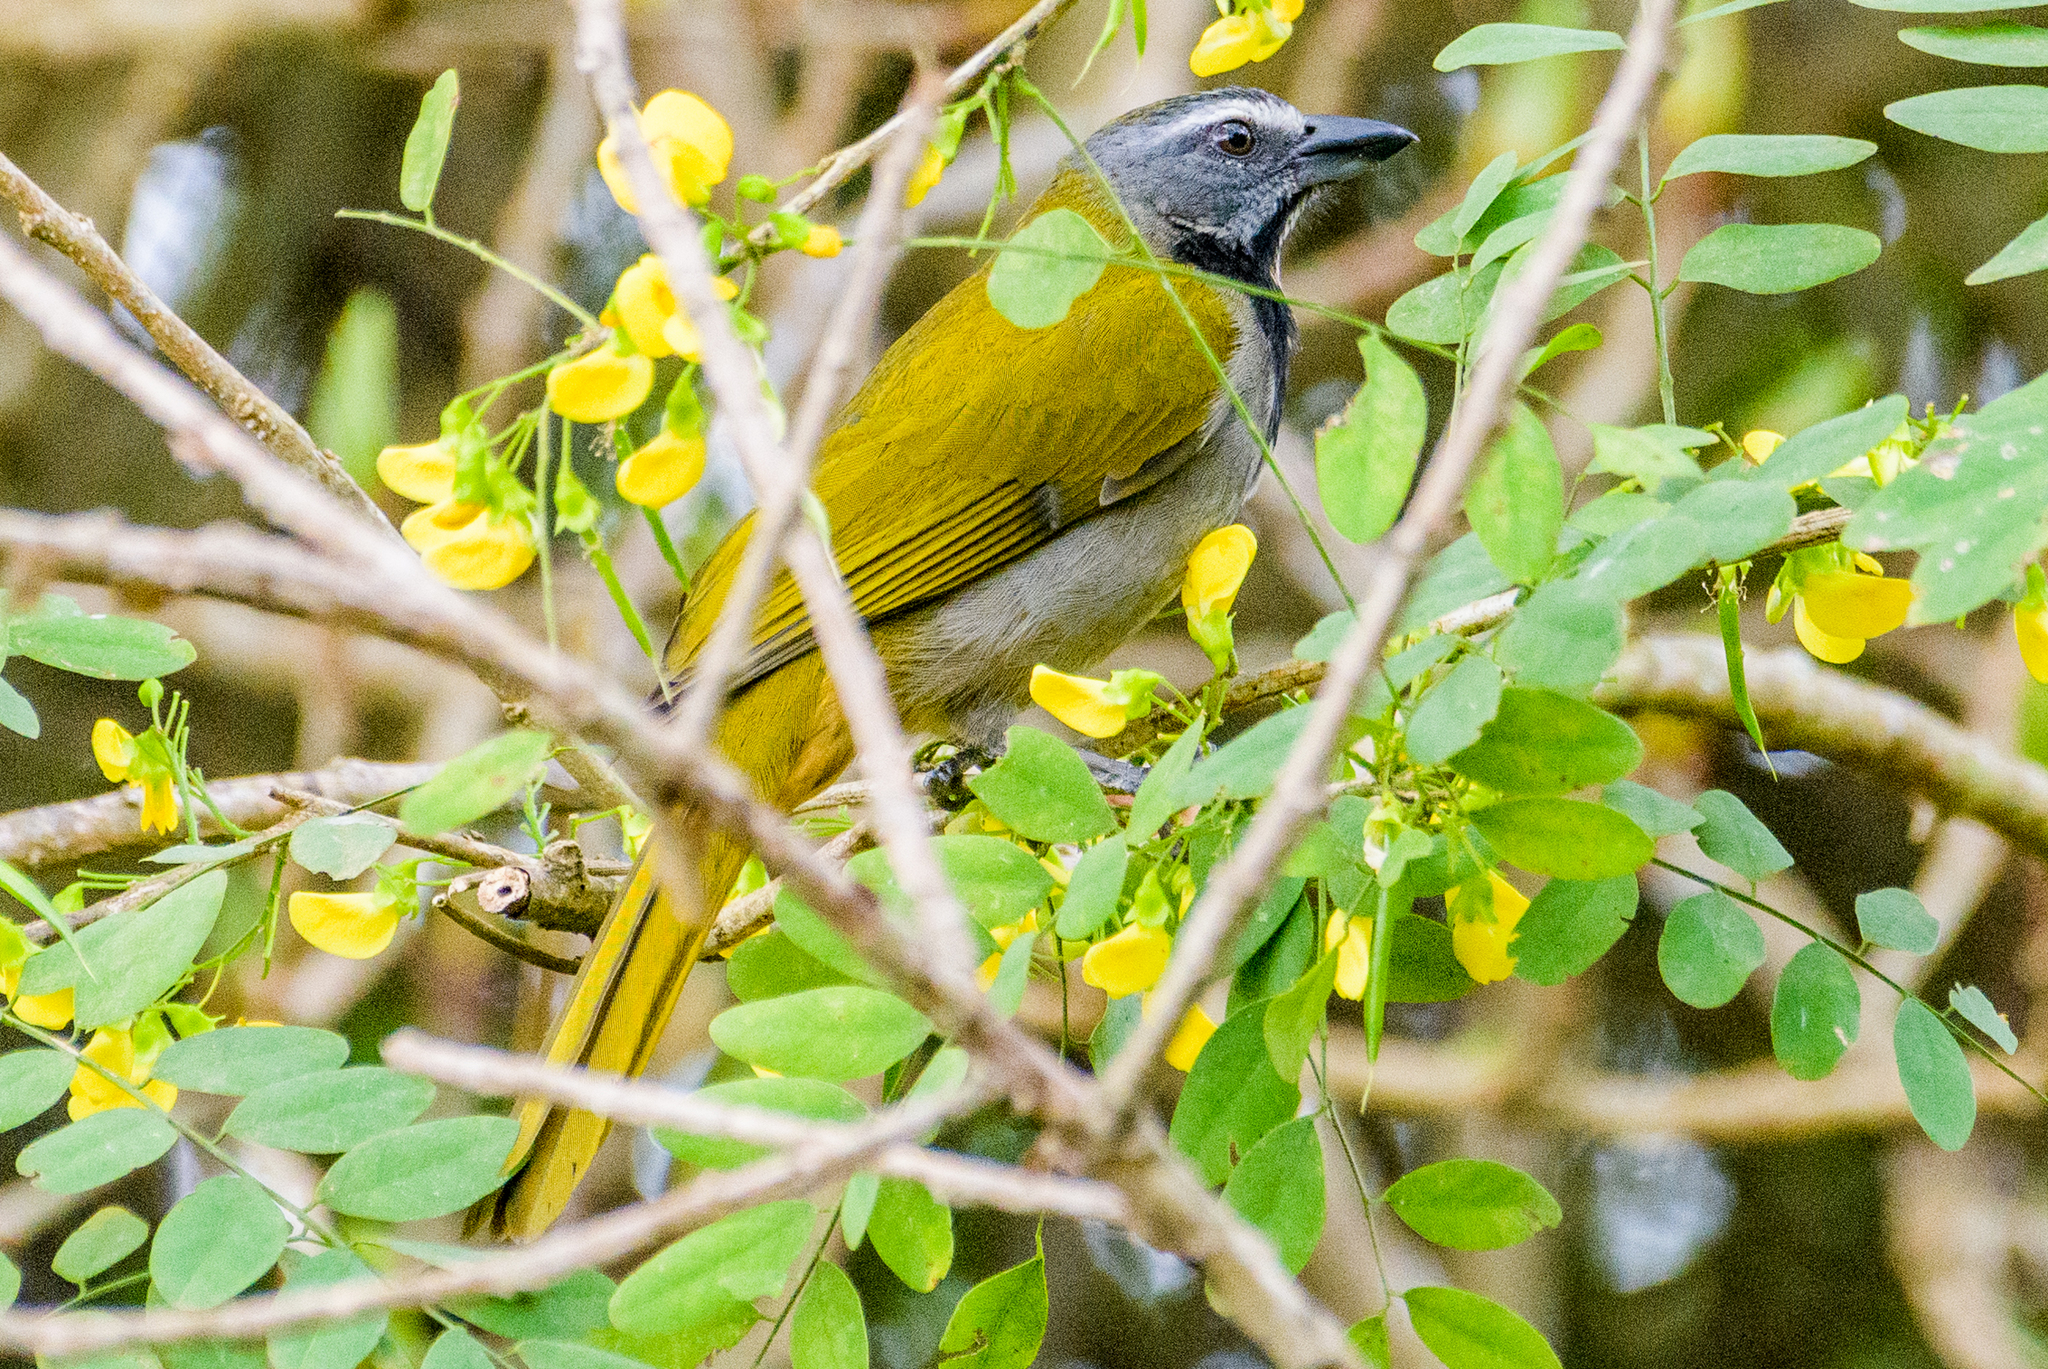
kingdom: Animalia
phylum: Chordata
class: Aves
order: Passeriformes
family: Thraupidae
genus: Saltator
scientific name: Saltator maximus
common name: Buff-throated saltator
